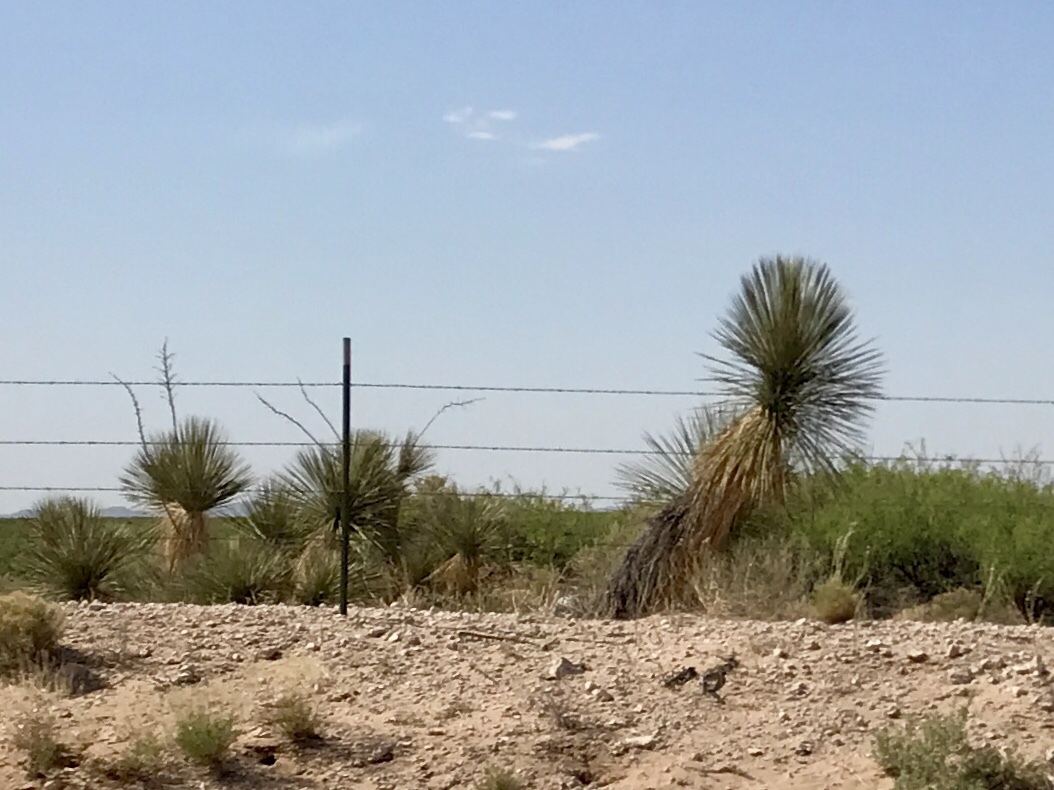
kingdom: Plantae
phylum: Tracheophyta
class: Liliopsida
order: Asparagales
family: Asparagaceae
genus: Yucca
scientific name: Yucca elata
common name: Palmella
